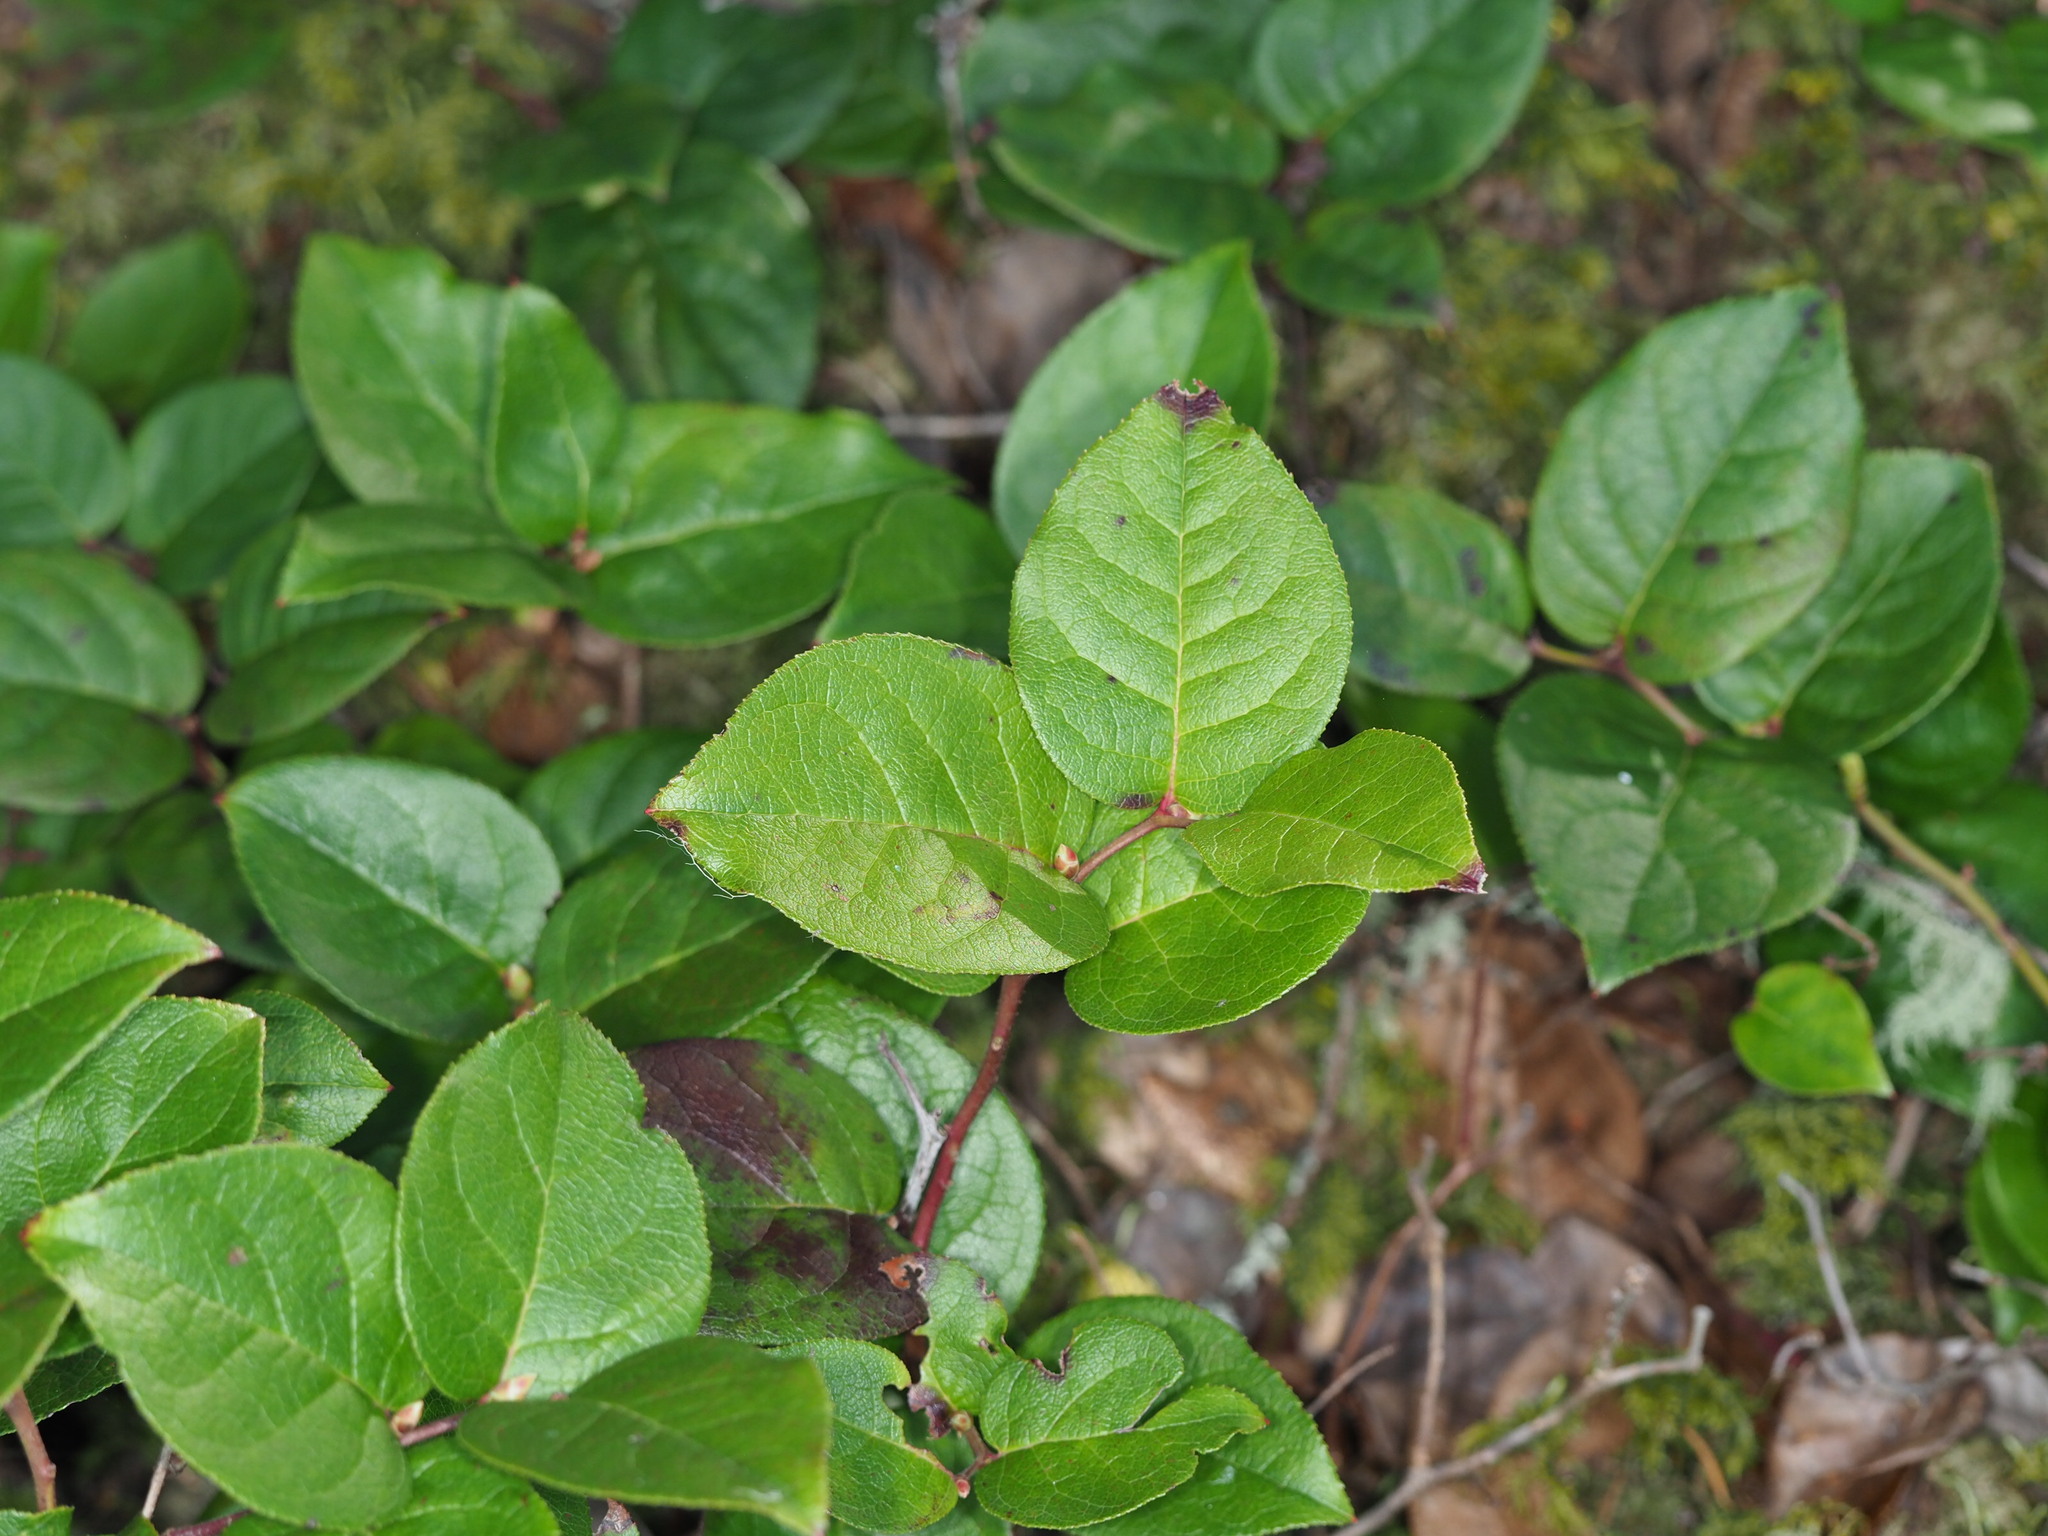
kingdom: Plantae
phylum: Tracheophyta
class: Magnoliopsida
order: Ericales
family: Ericaceae
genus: Gaultheria
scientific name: Gaultheria shallon
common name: Shallon
